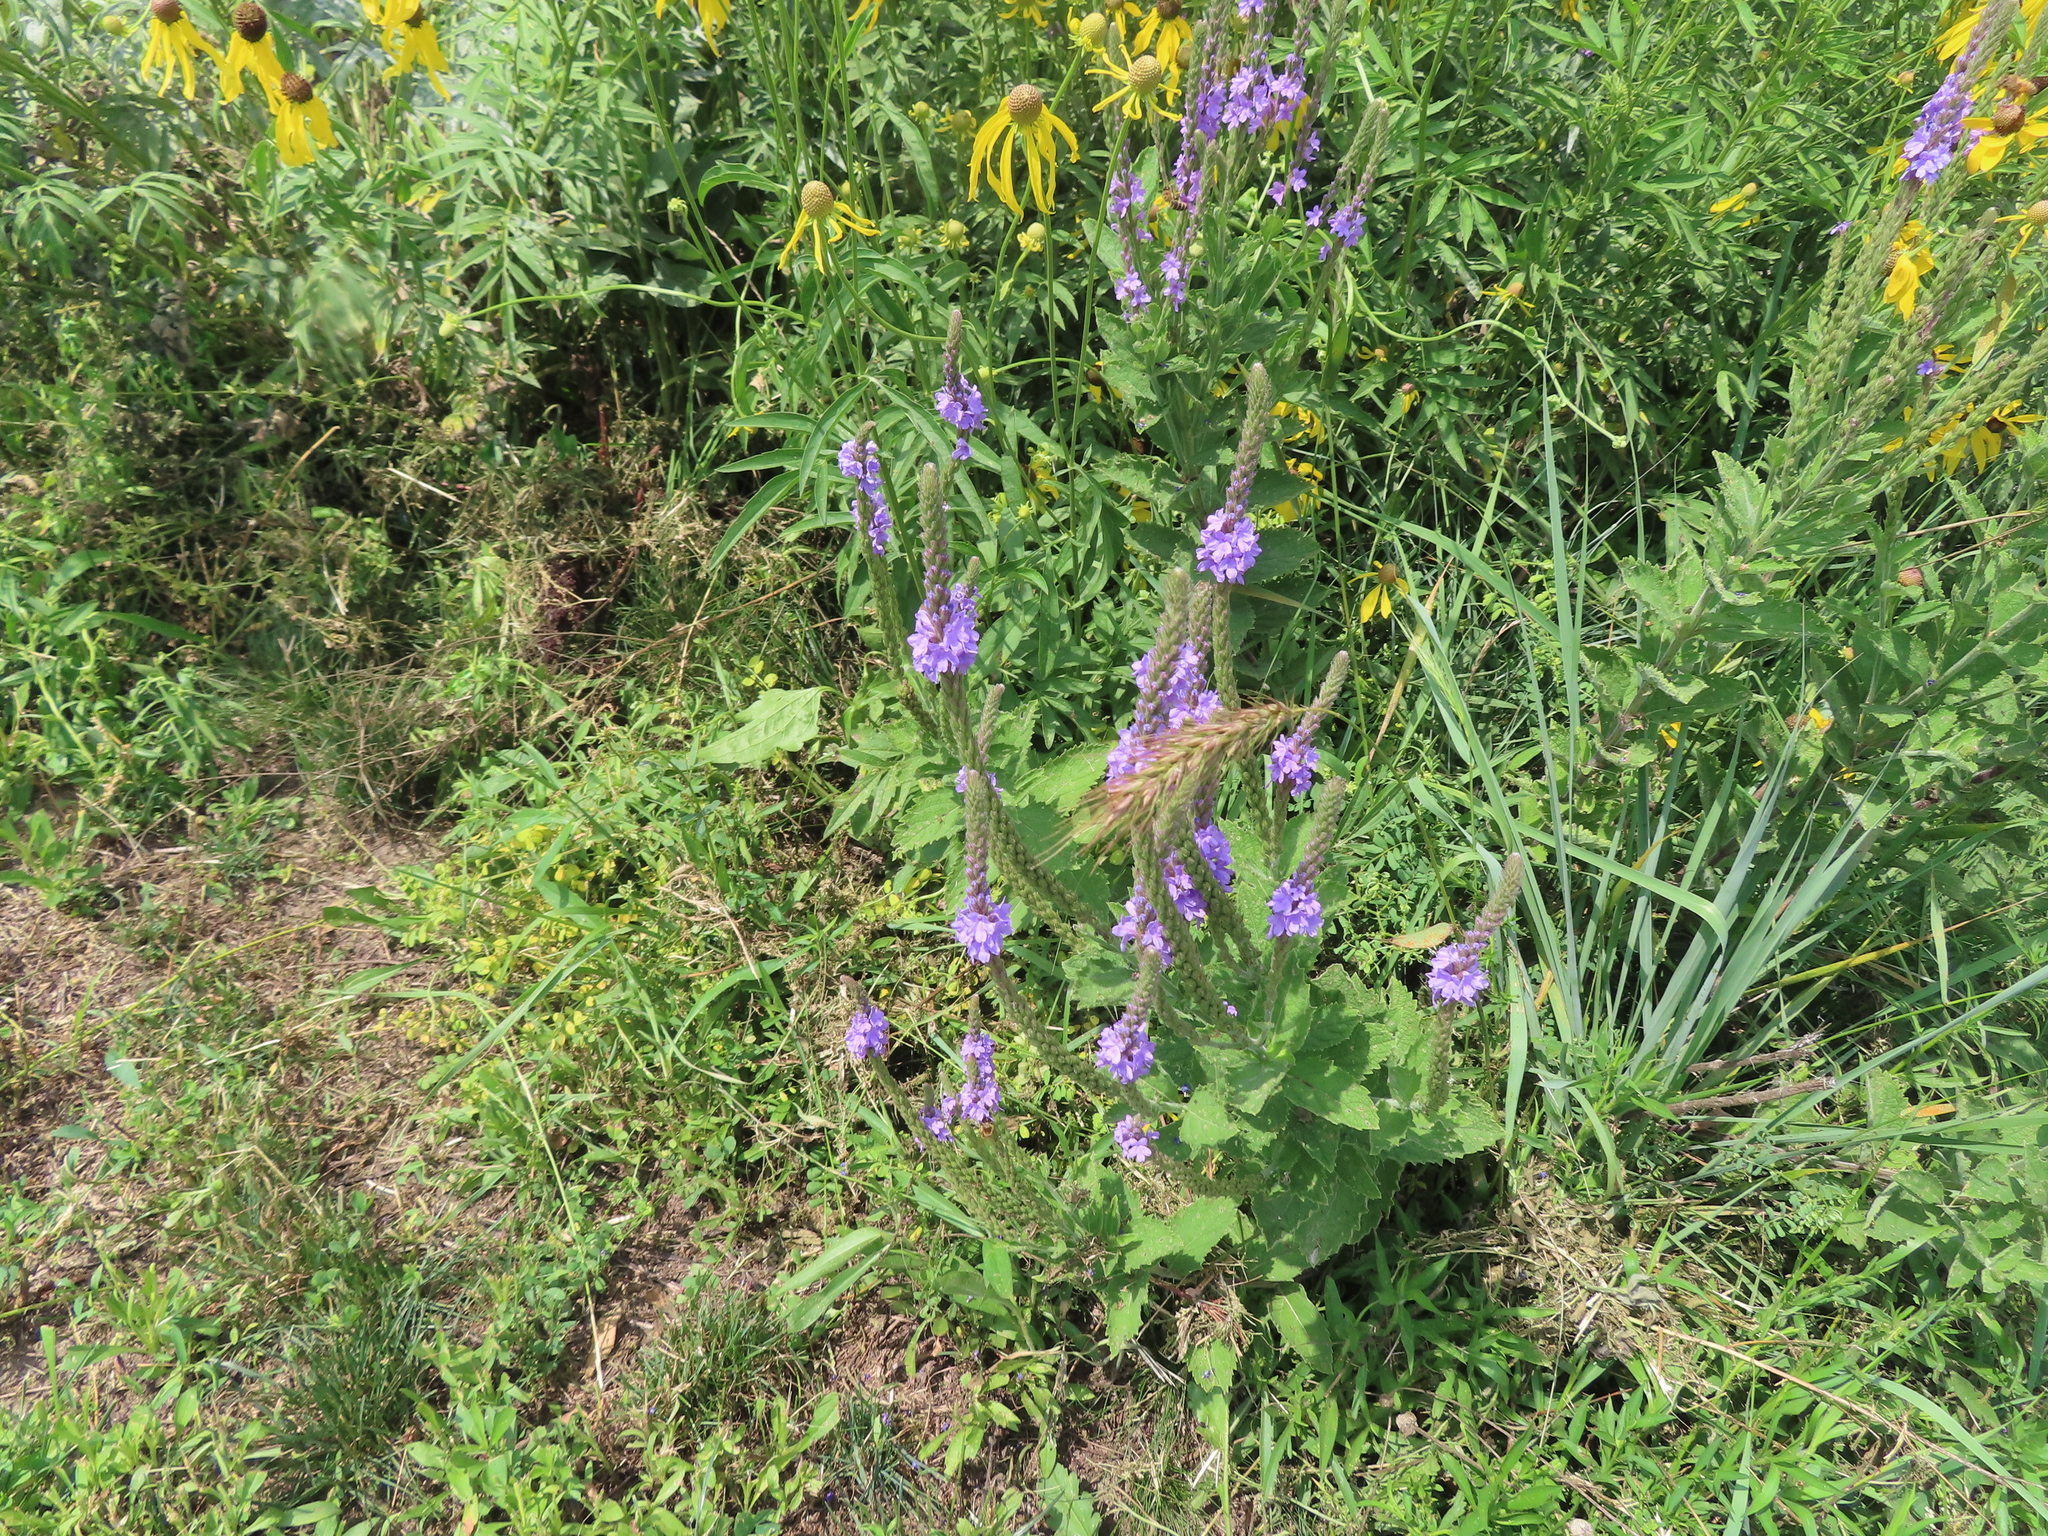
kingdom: Plantae
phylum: Tracheophyta
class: Magnoliopsida
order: Lamiales
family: Verbenaceae
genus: Verbena
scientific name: Verbena stricta
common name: Hoary vervain
